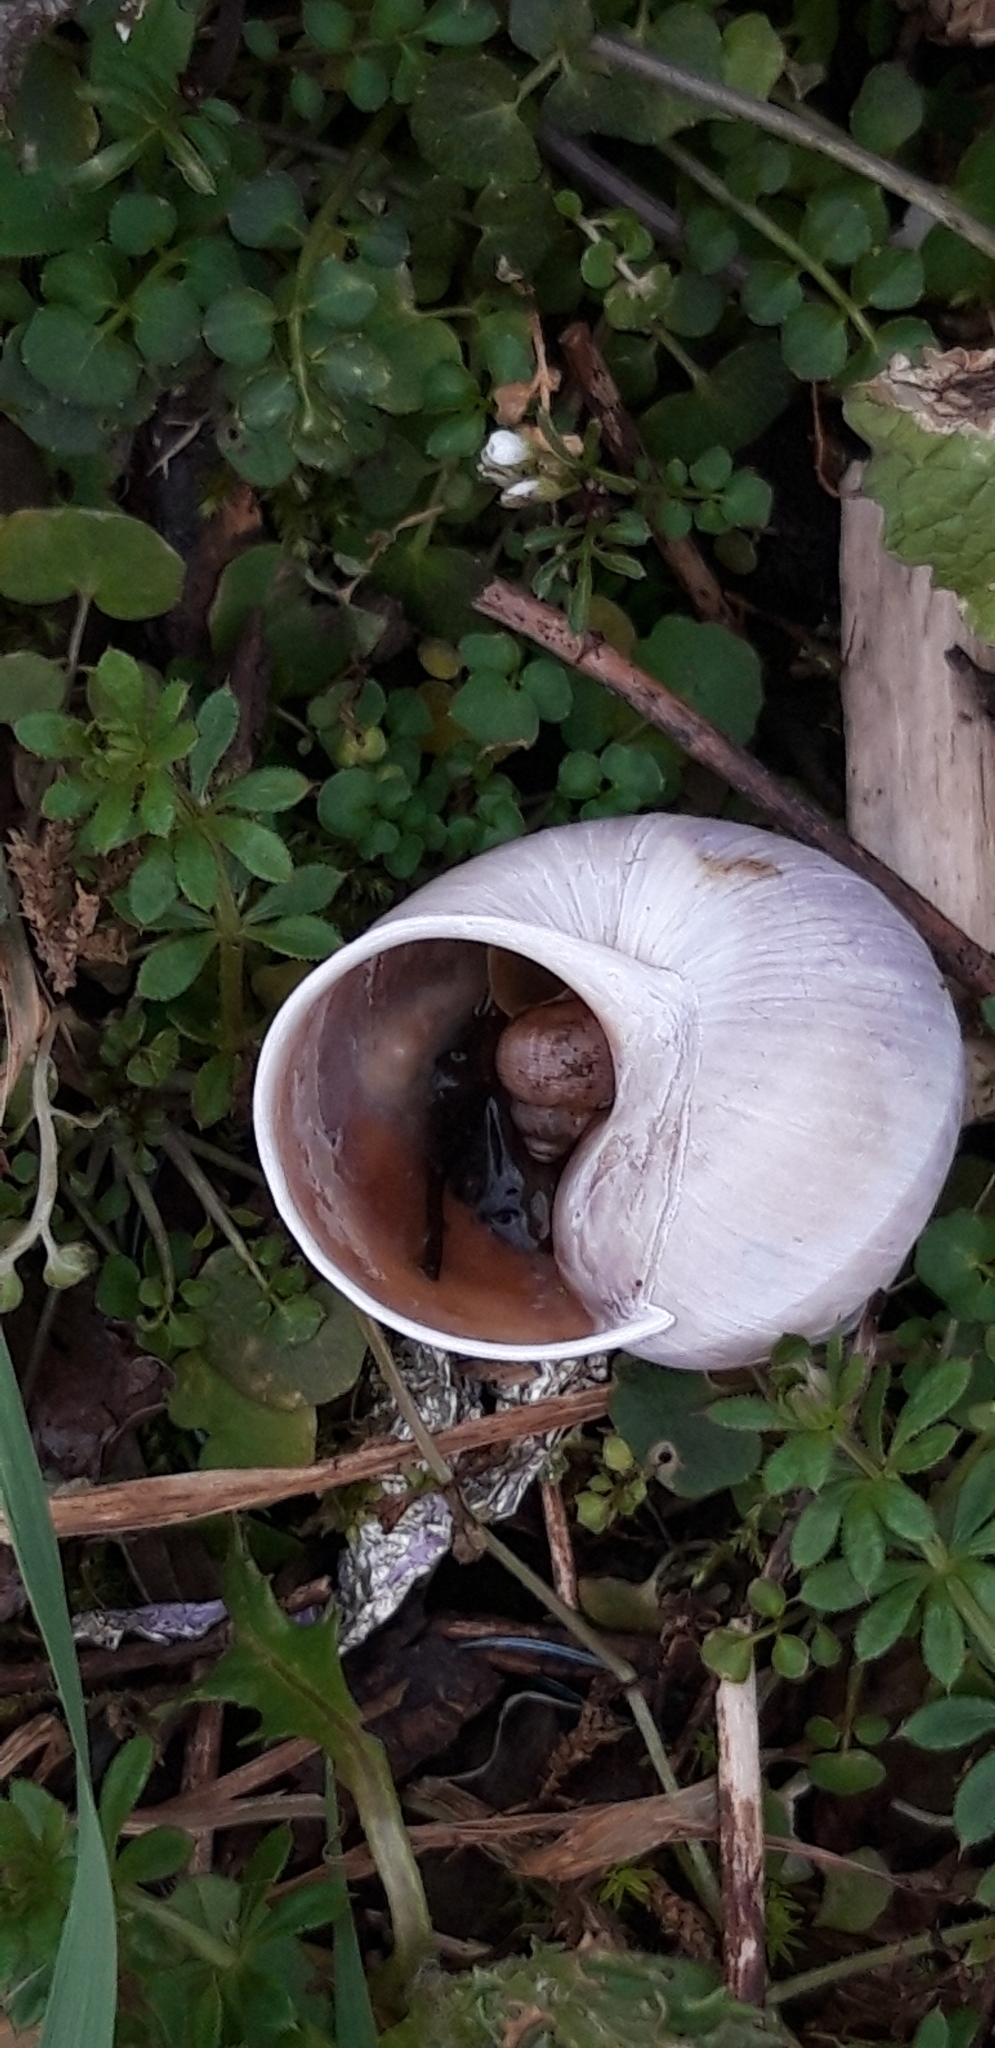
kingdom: Animalia
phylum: Mollusca
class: Gastropoda
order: Stylommatophora
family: Helicidae
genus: Helix
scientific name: Helix pomatia
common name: Roman snail
